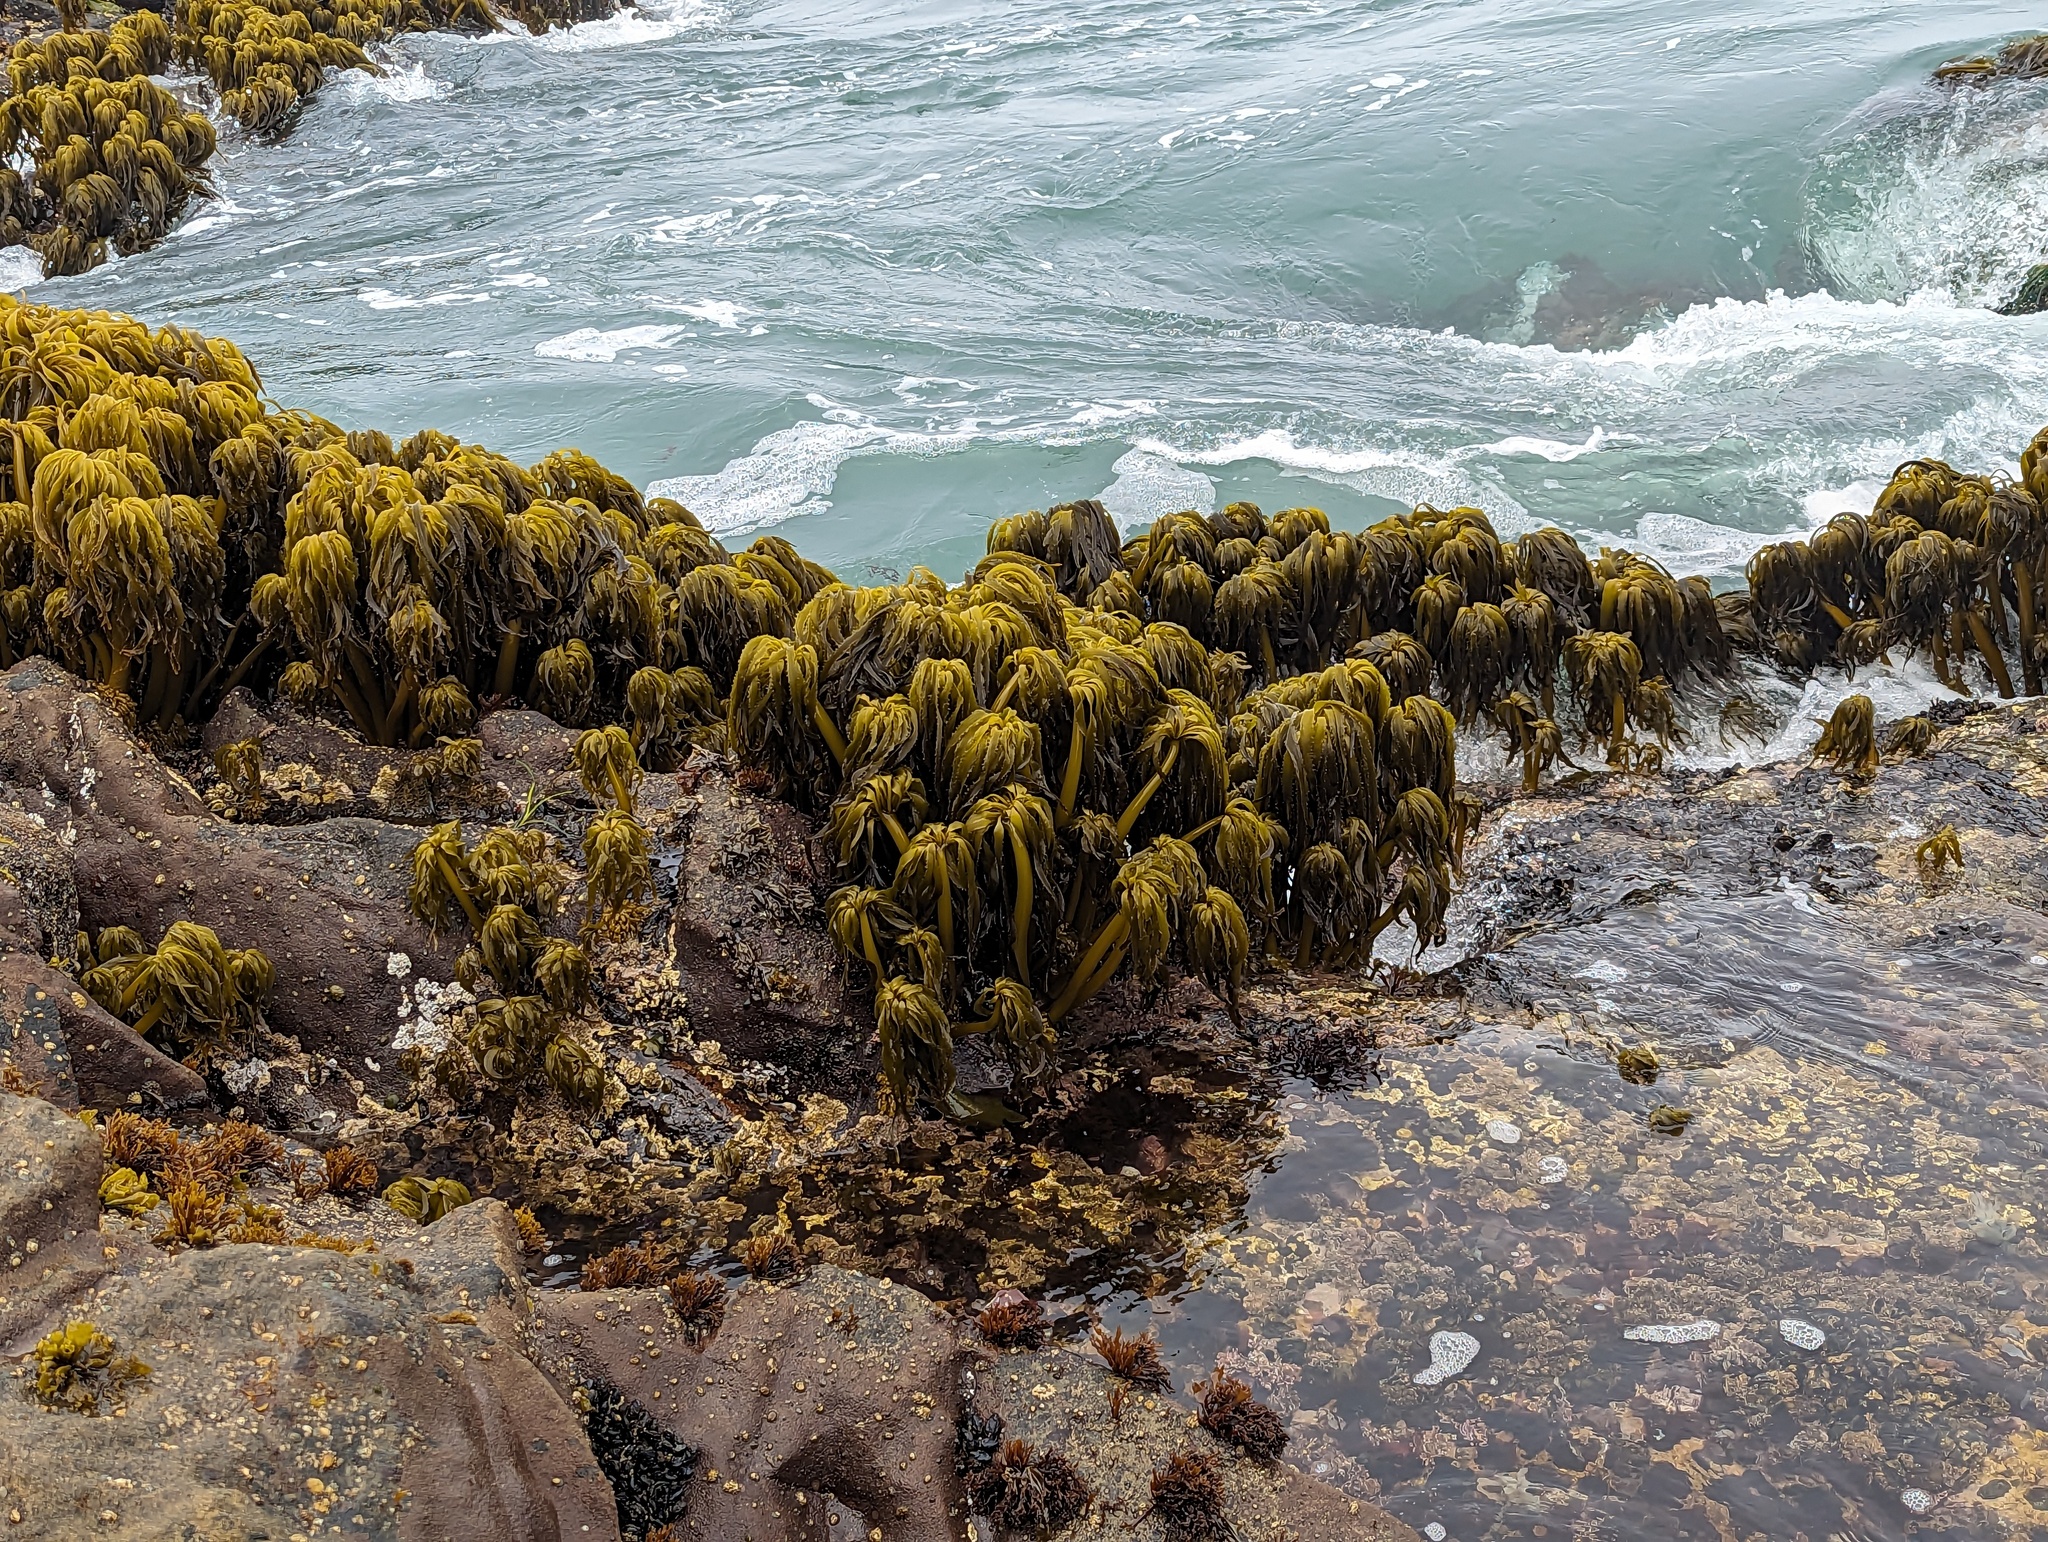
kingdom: Chromista
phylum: Ochrophyta
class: Phaeophyceae
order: Laminariales
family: Laminariaceae
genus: Postelsia
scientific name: Postelsia palmiformis
